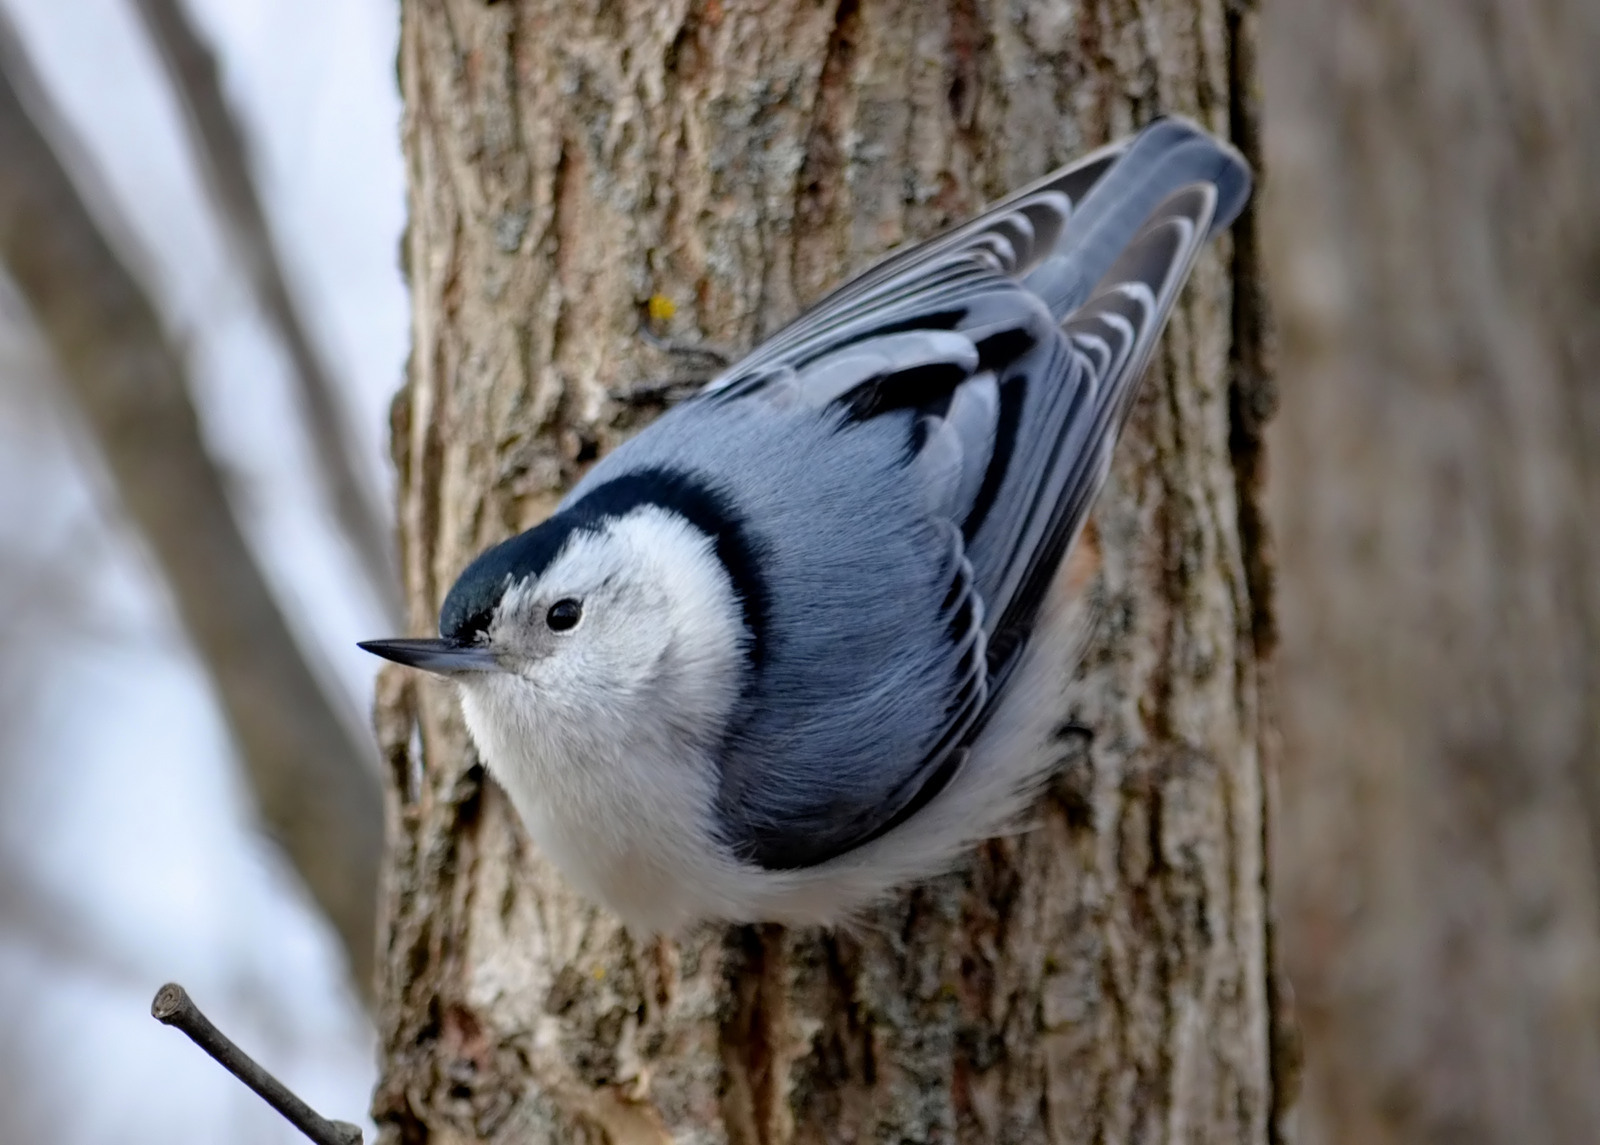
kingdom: Animalia
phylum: Chordata
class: Aves
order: Passeriformes
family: Sittidae
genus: Sitta
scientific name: Sitta carolinensis
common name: White-breasted nuthatch
